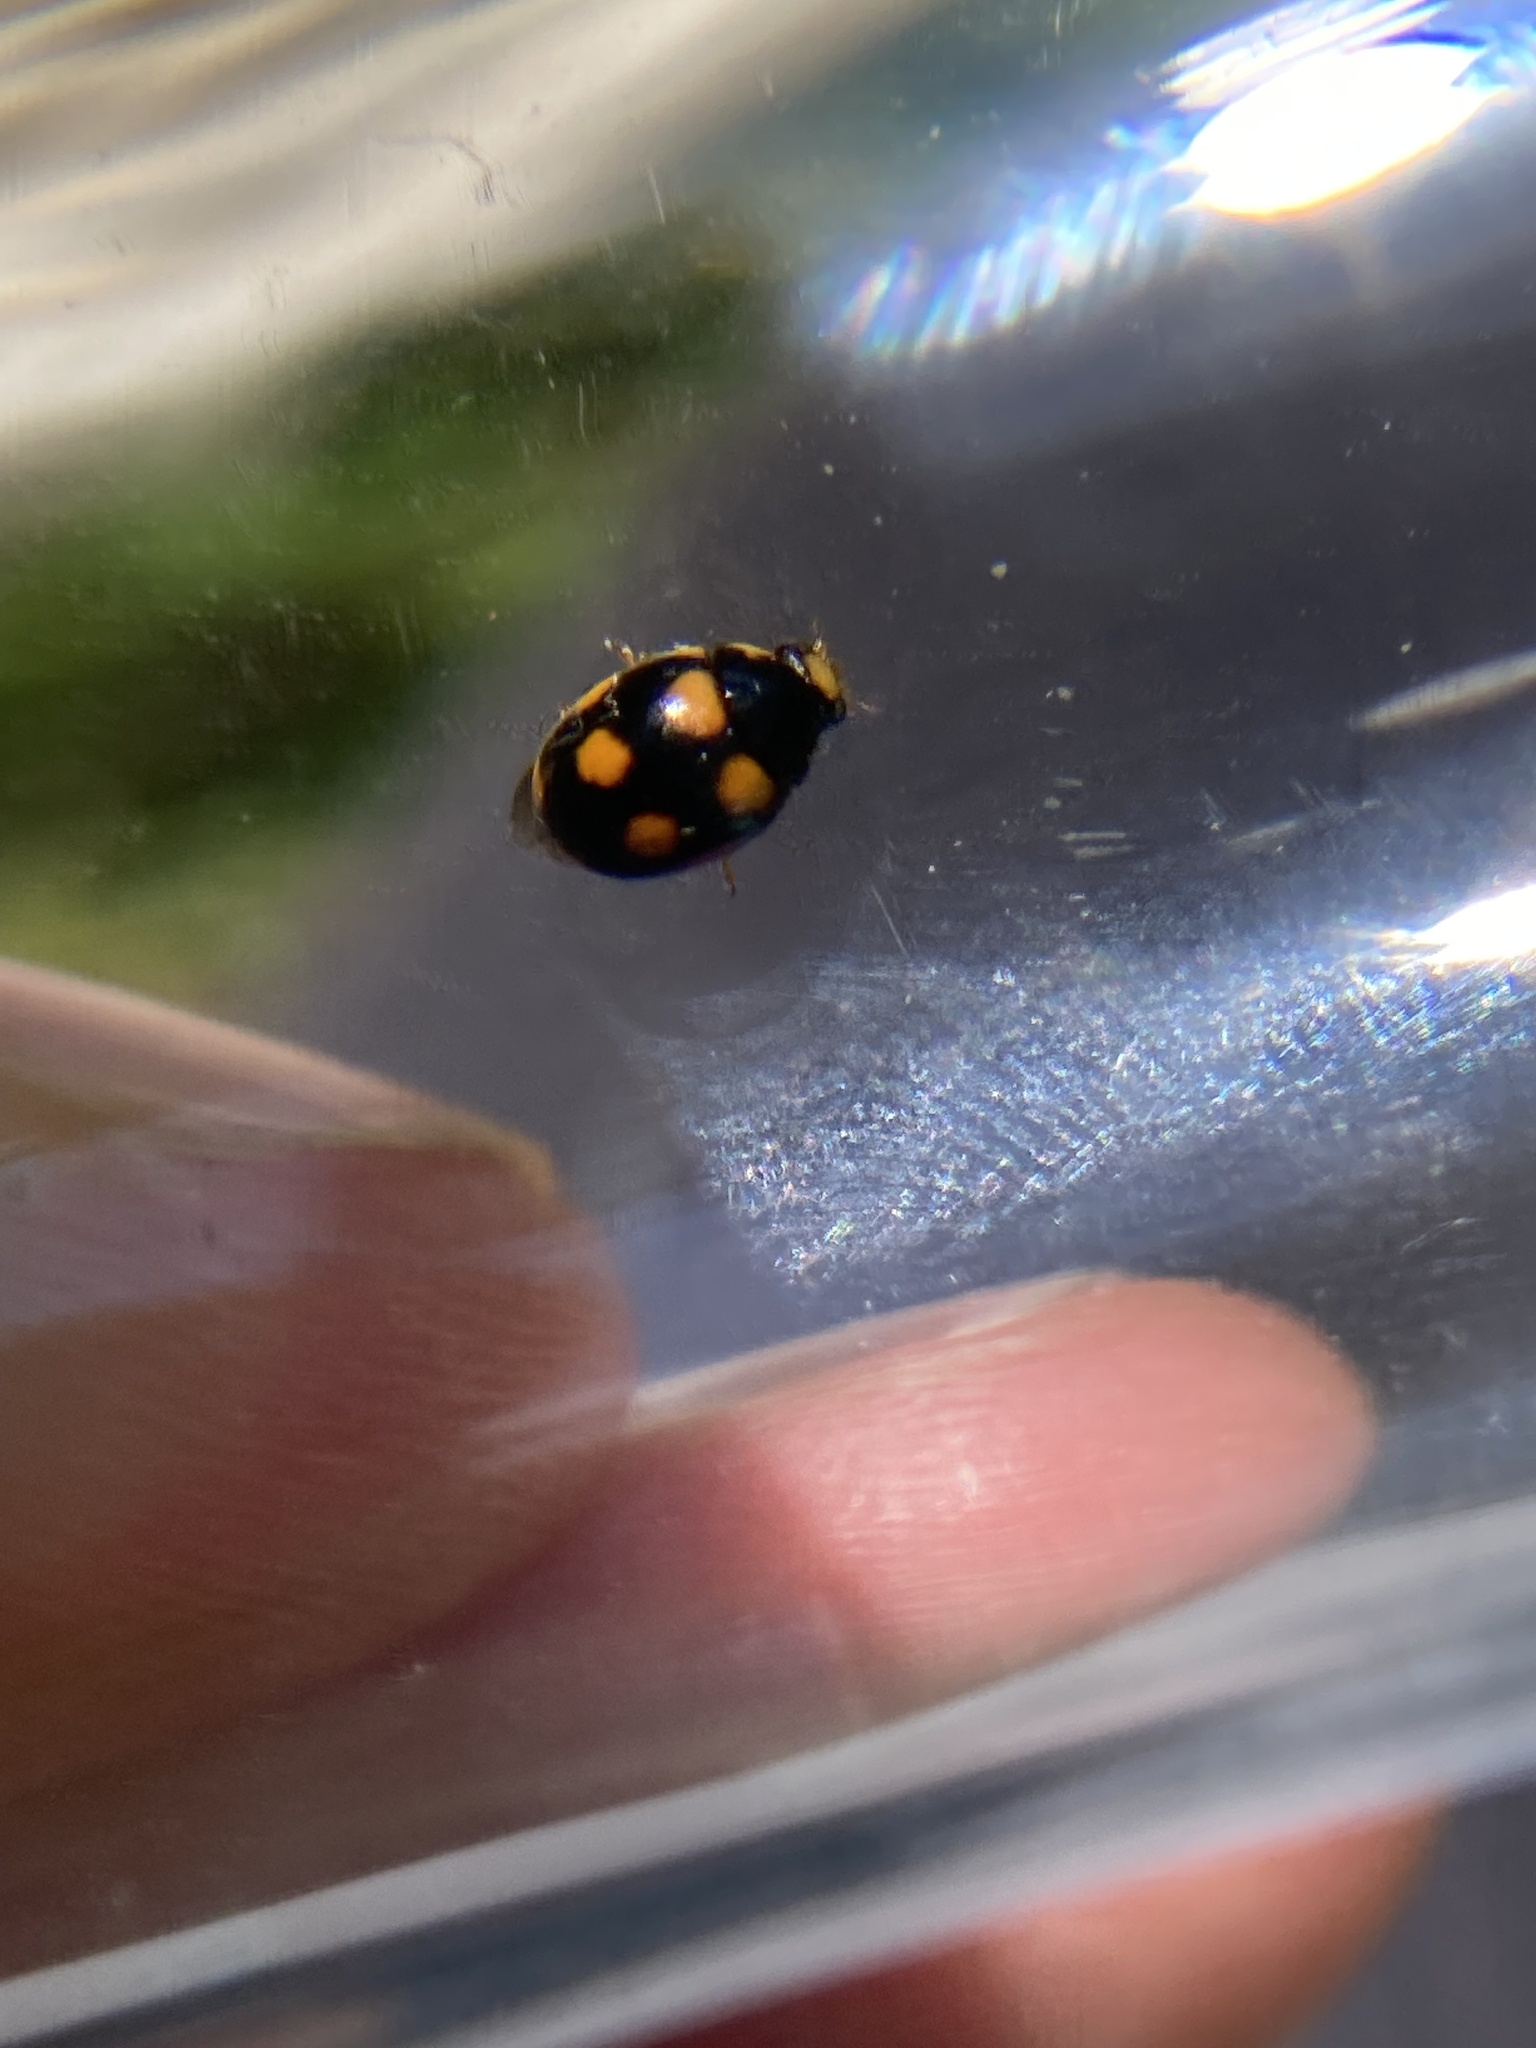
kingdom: Animalia
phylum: Arthropoda
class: Insecta
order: Coleoptera
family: Coccinellidae
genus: Brachiacantha
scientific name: Brachiacantha ursina
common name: Ursine spurleg lady beetle
